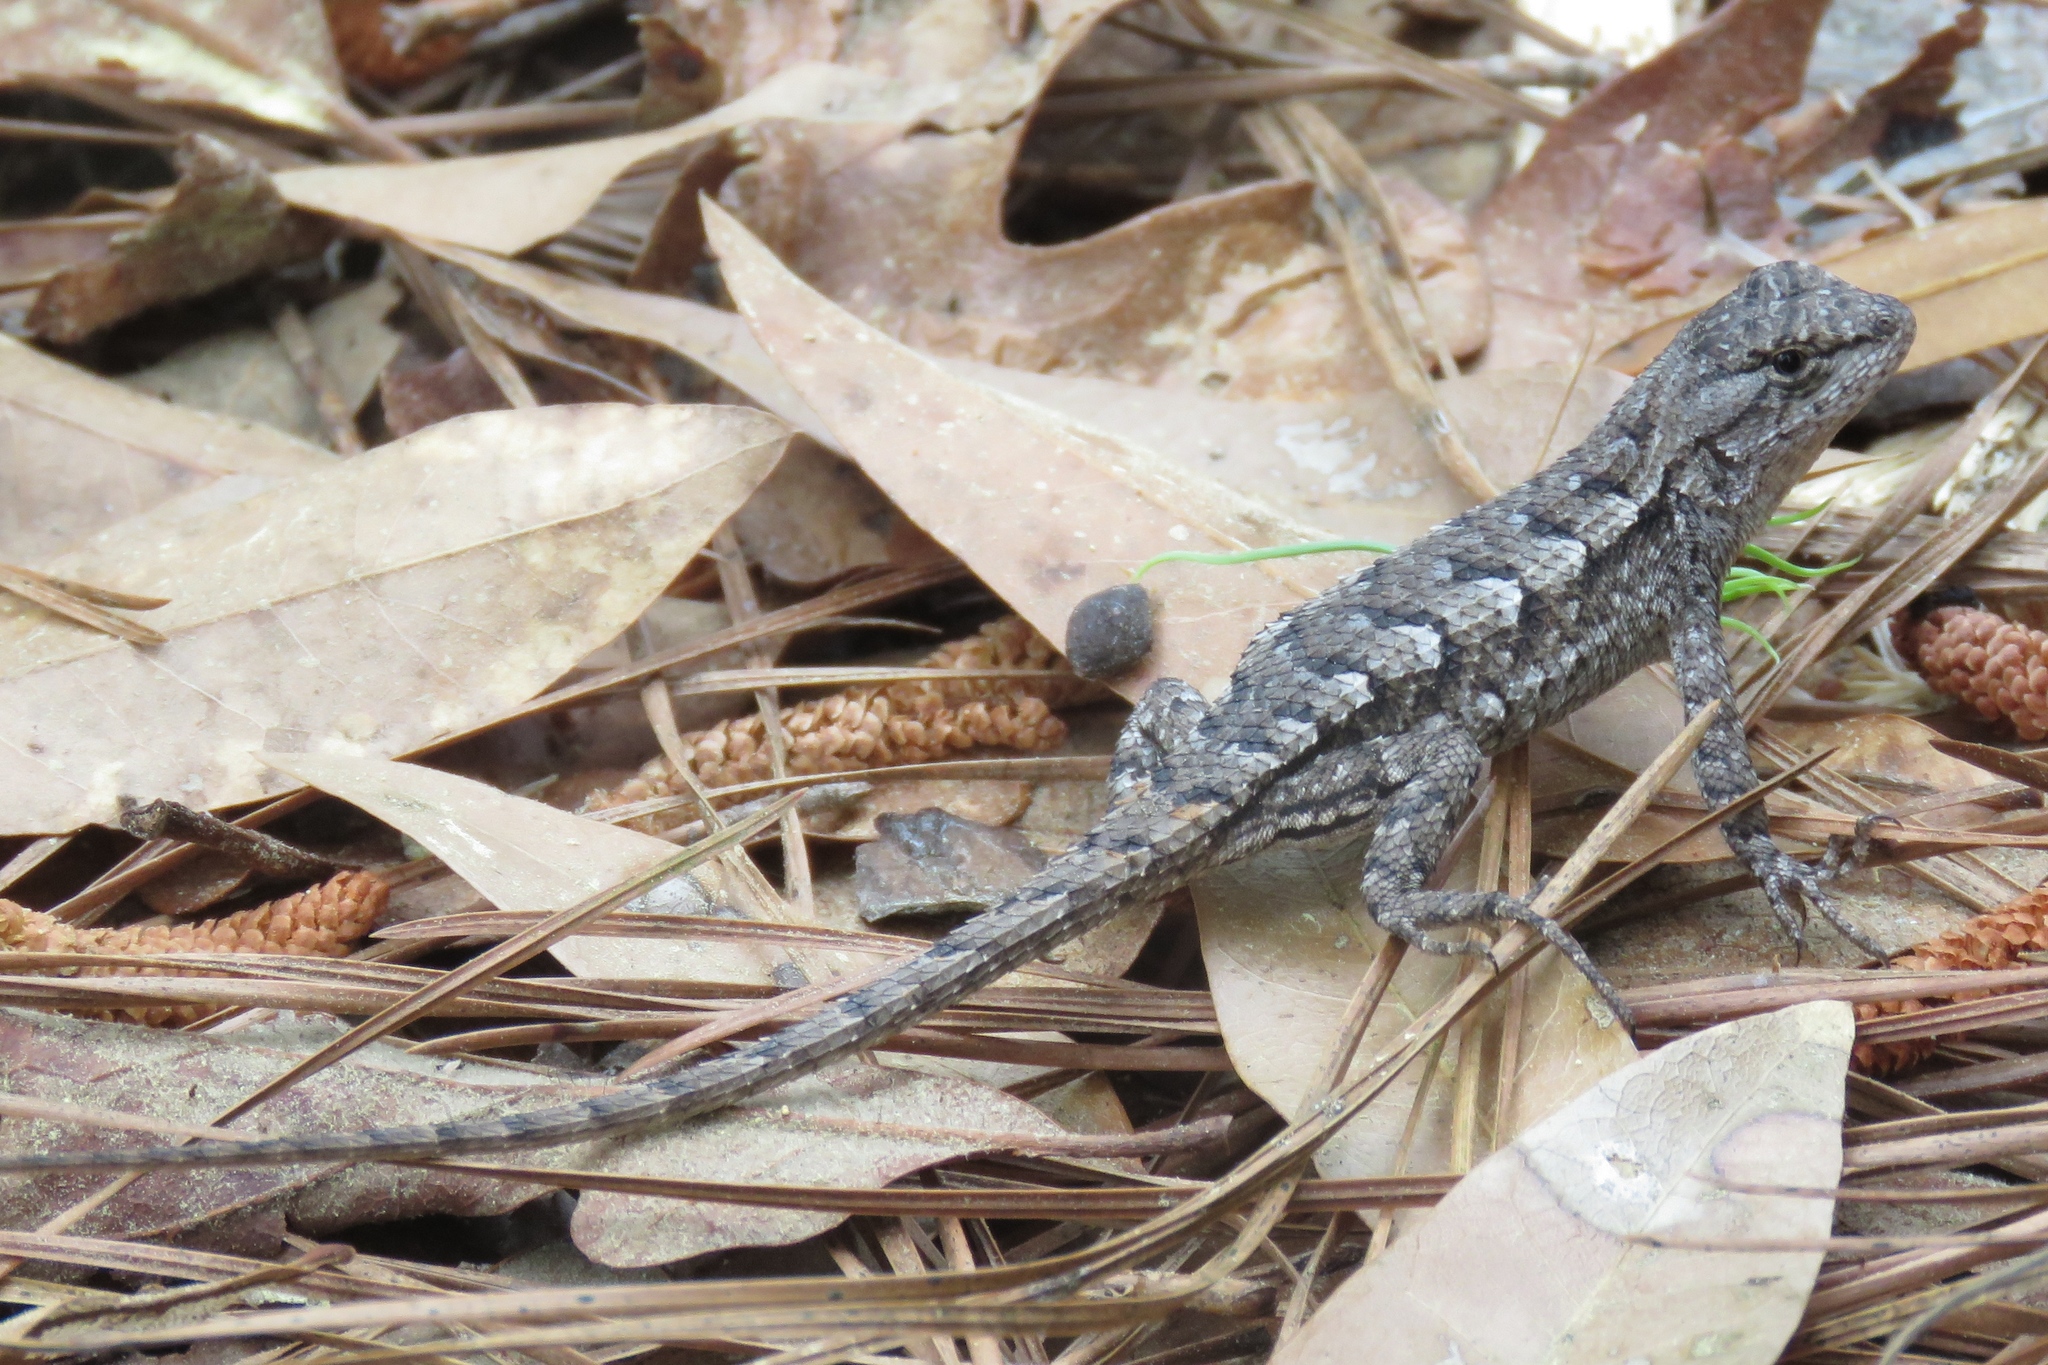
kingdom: Animalia
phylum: Chordata
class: Squamata
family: Phrynosomatidae
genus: Sceloporus
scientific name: Sceloporus consobrinus
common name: Southern prairie lizard
